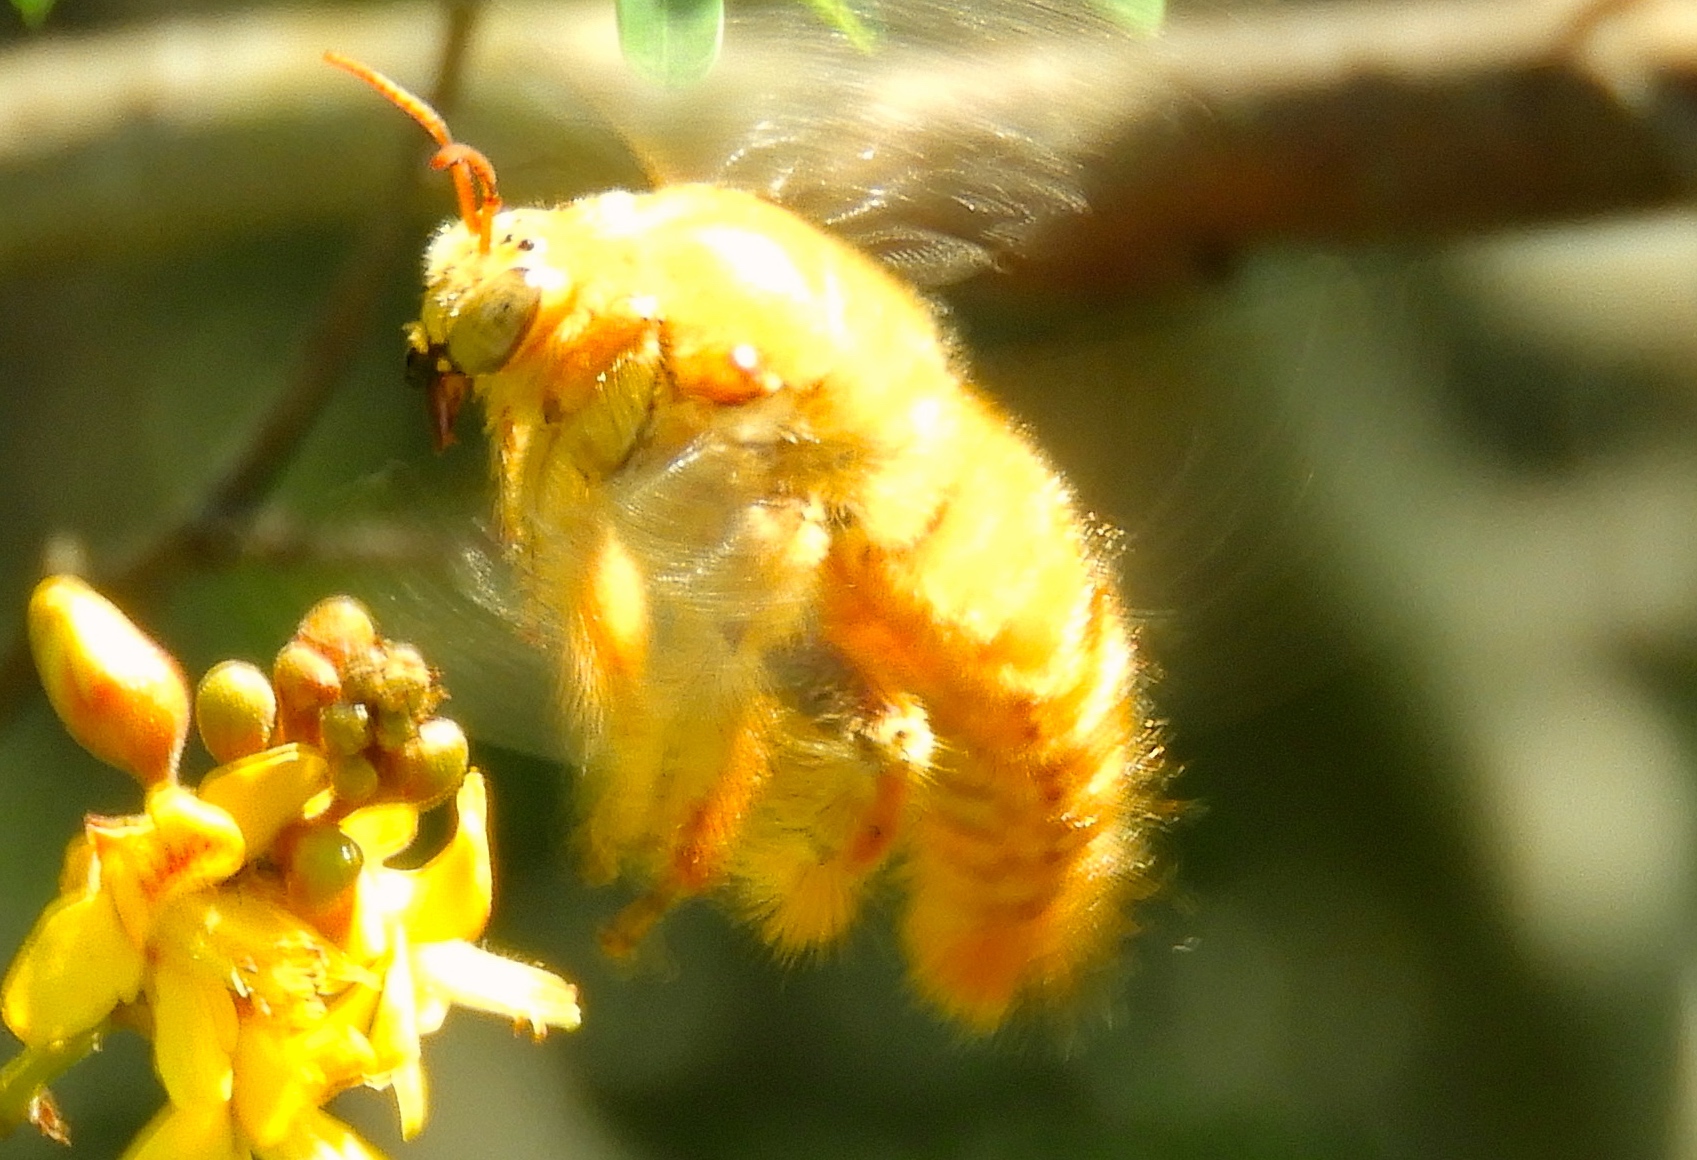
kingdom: Animalia
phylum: Arthropoda
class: Insecta
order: Hymenoptera
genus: Neoxylocopa
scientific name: Neoxylocopa
